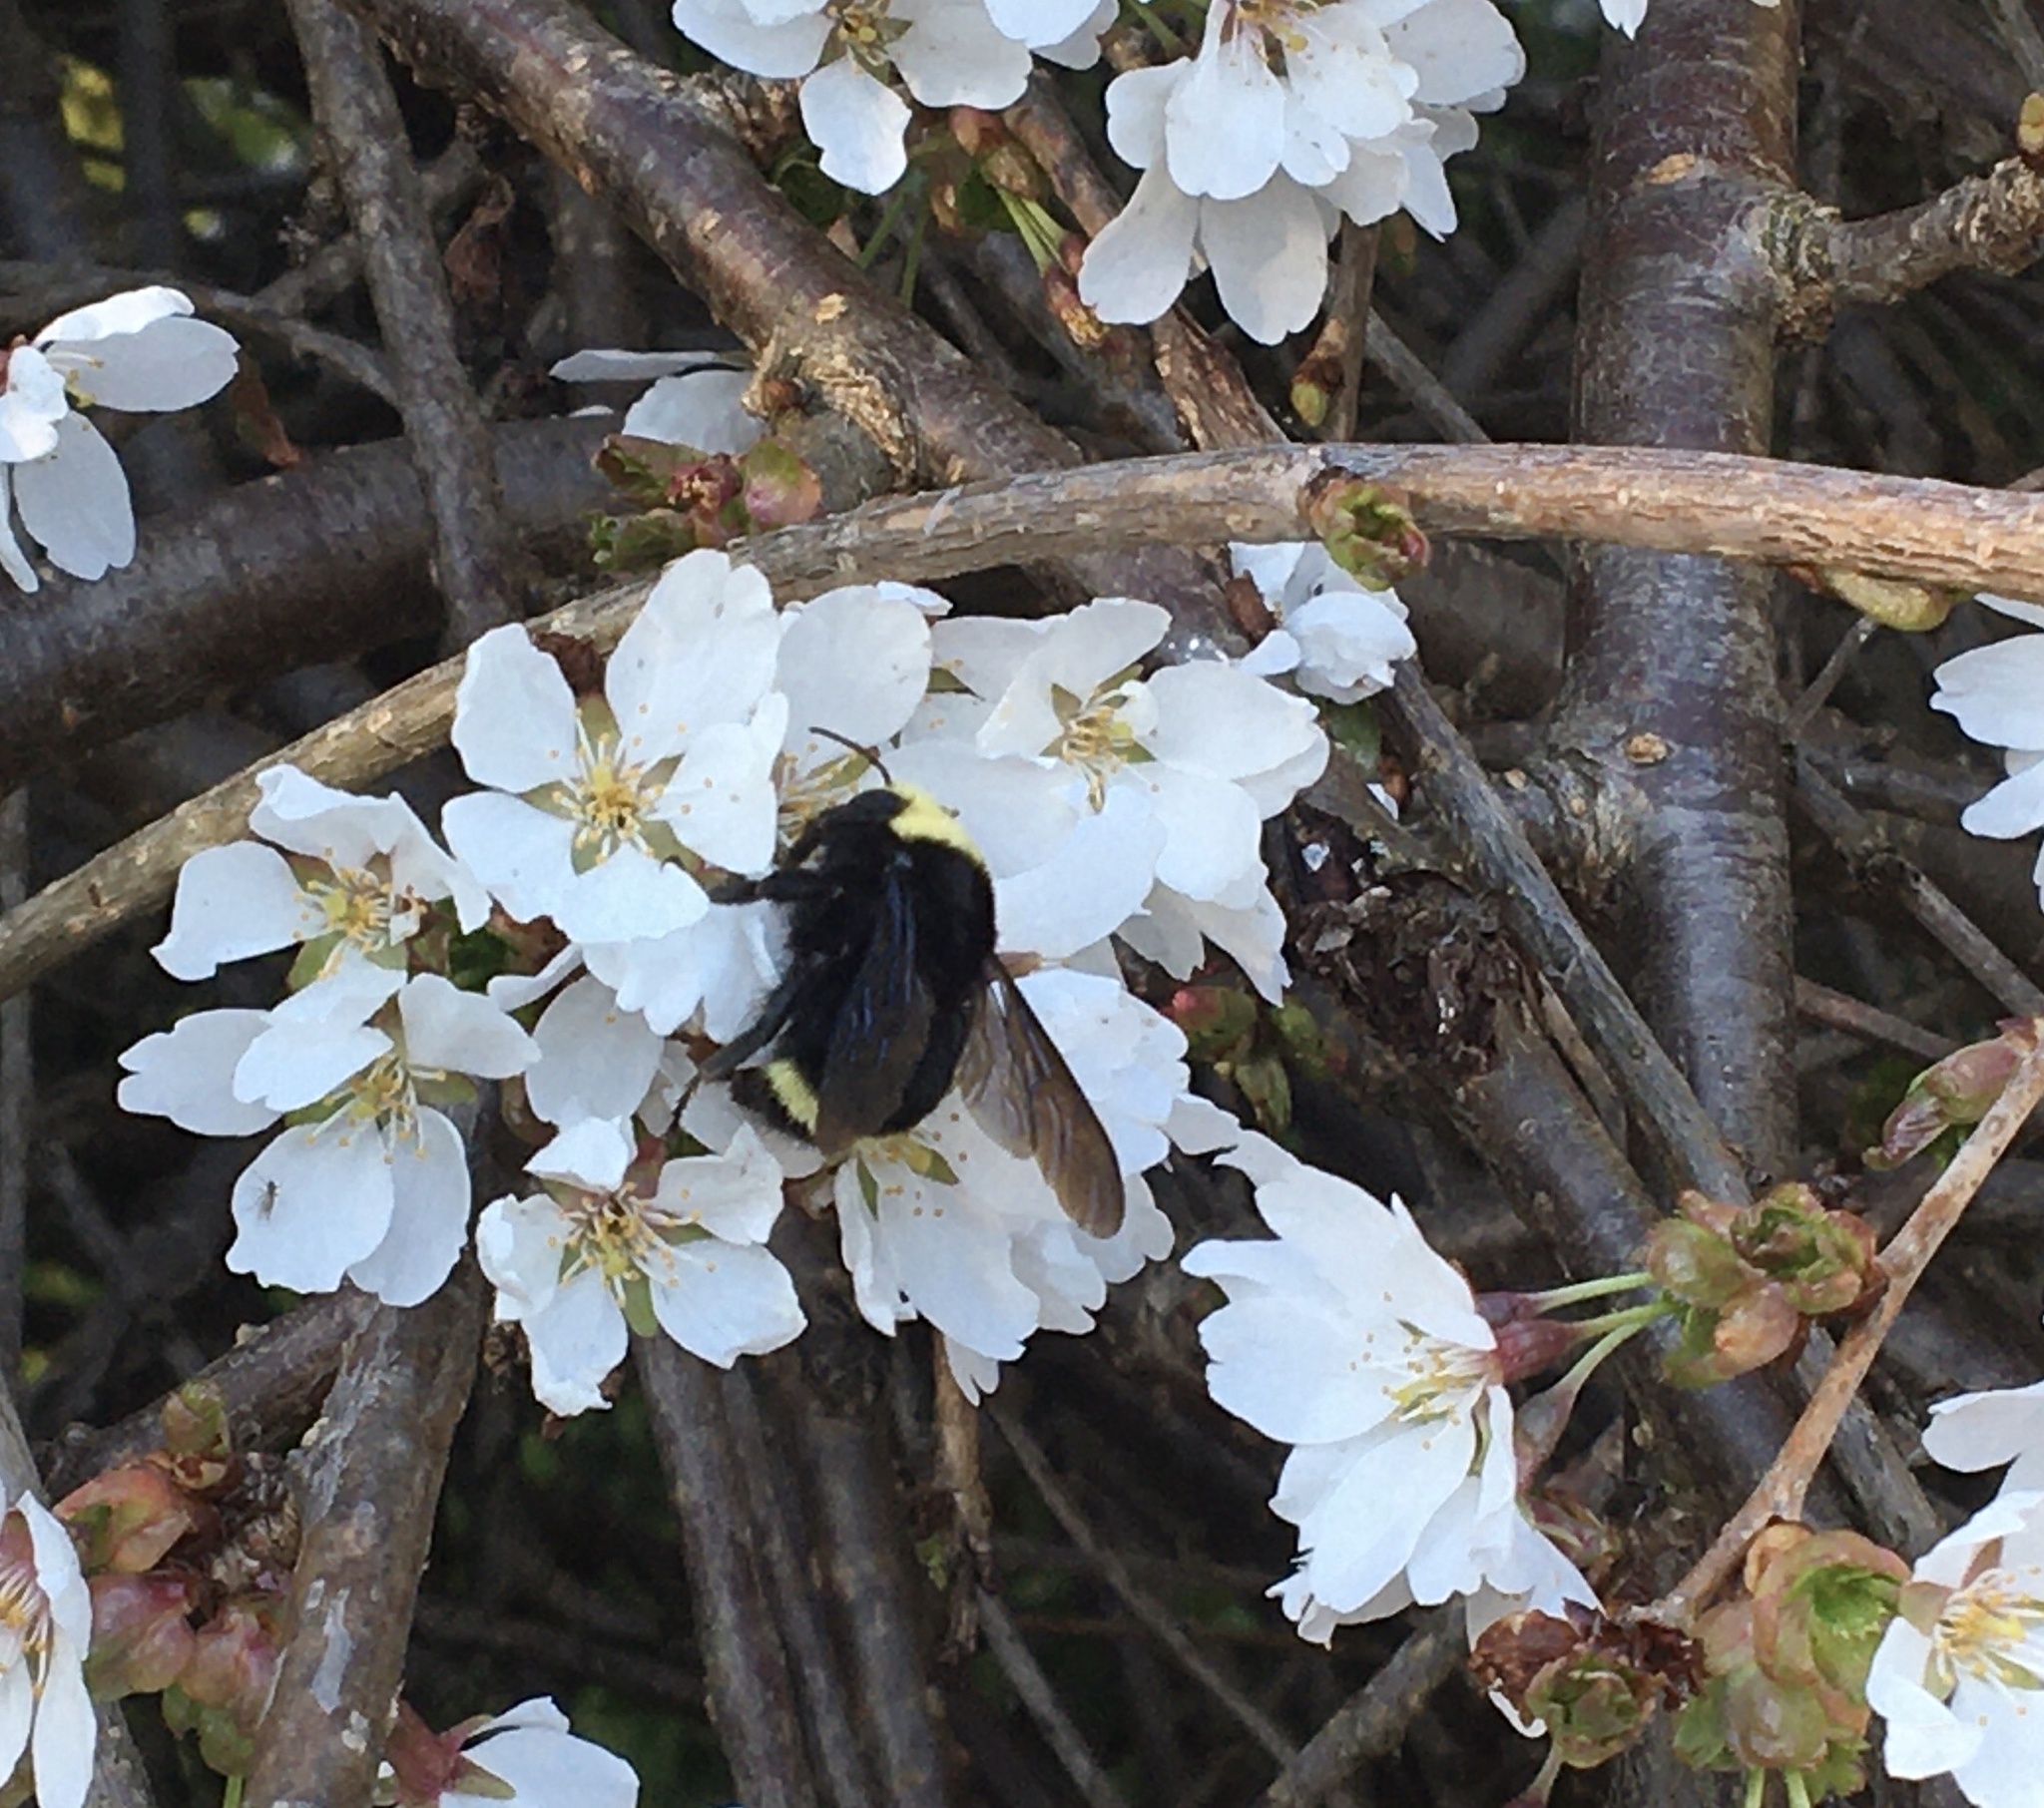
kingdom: Animalia
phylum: Arthropoda
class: Insecta
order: Hymenoptera
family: Apidae
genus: Bombus
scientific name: Bombus vosnesenskii
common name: Vosnesensky bumble bee
